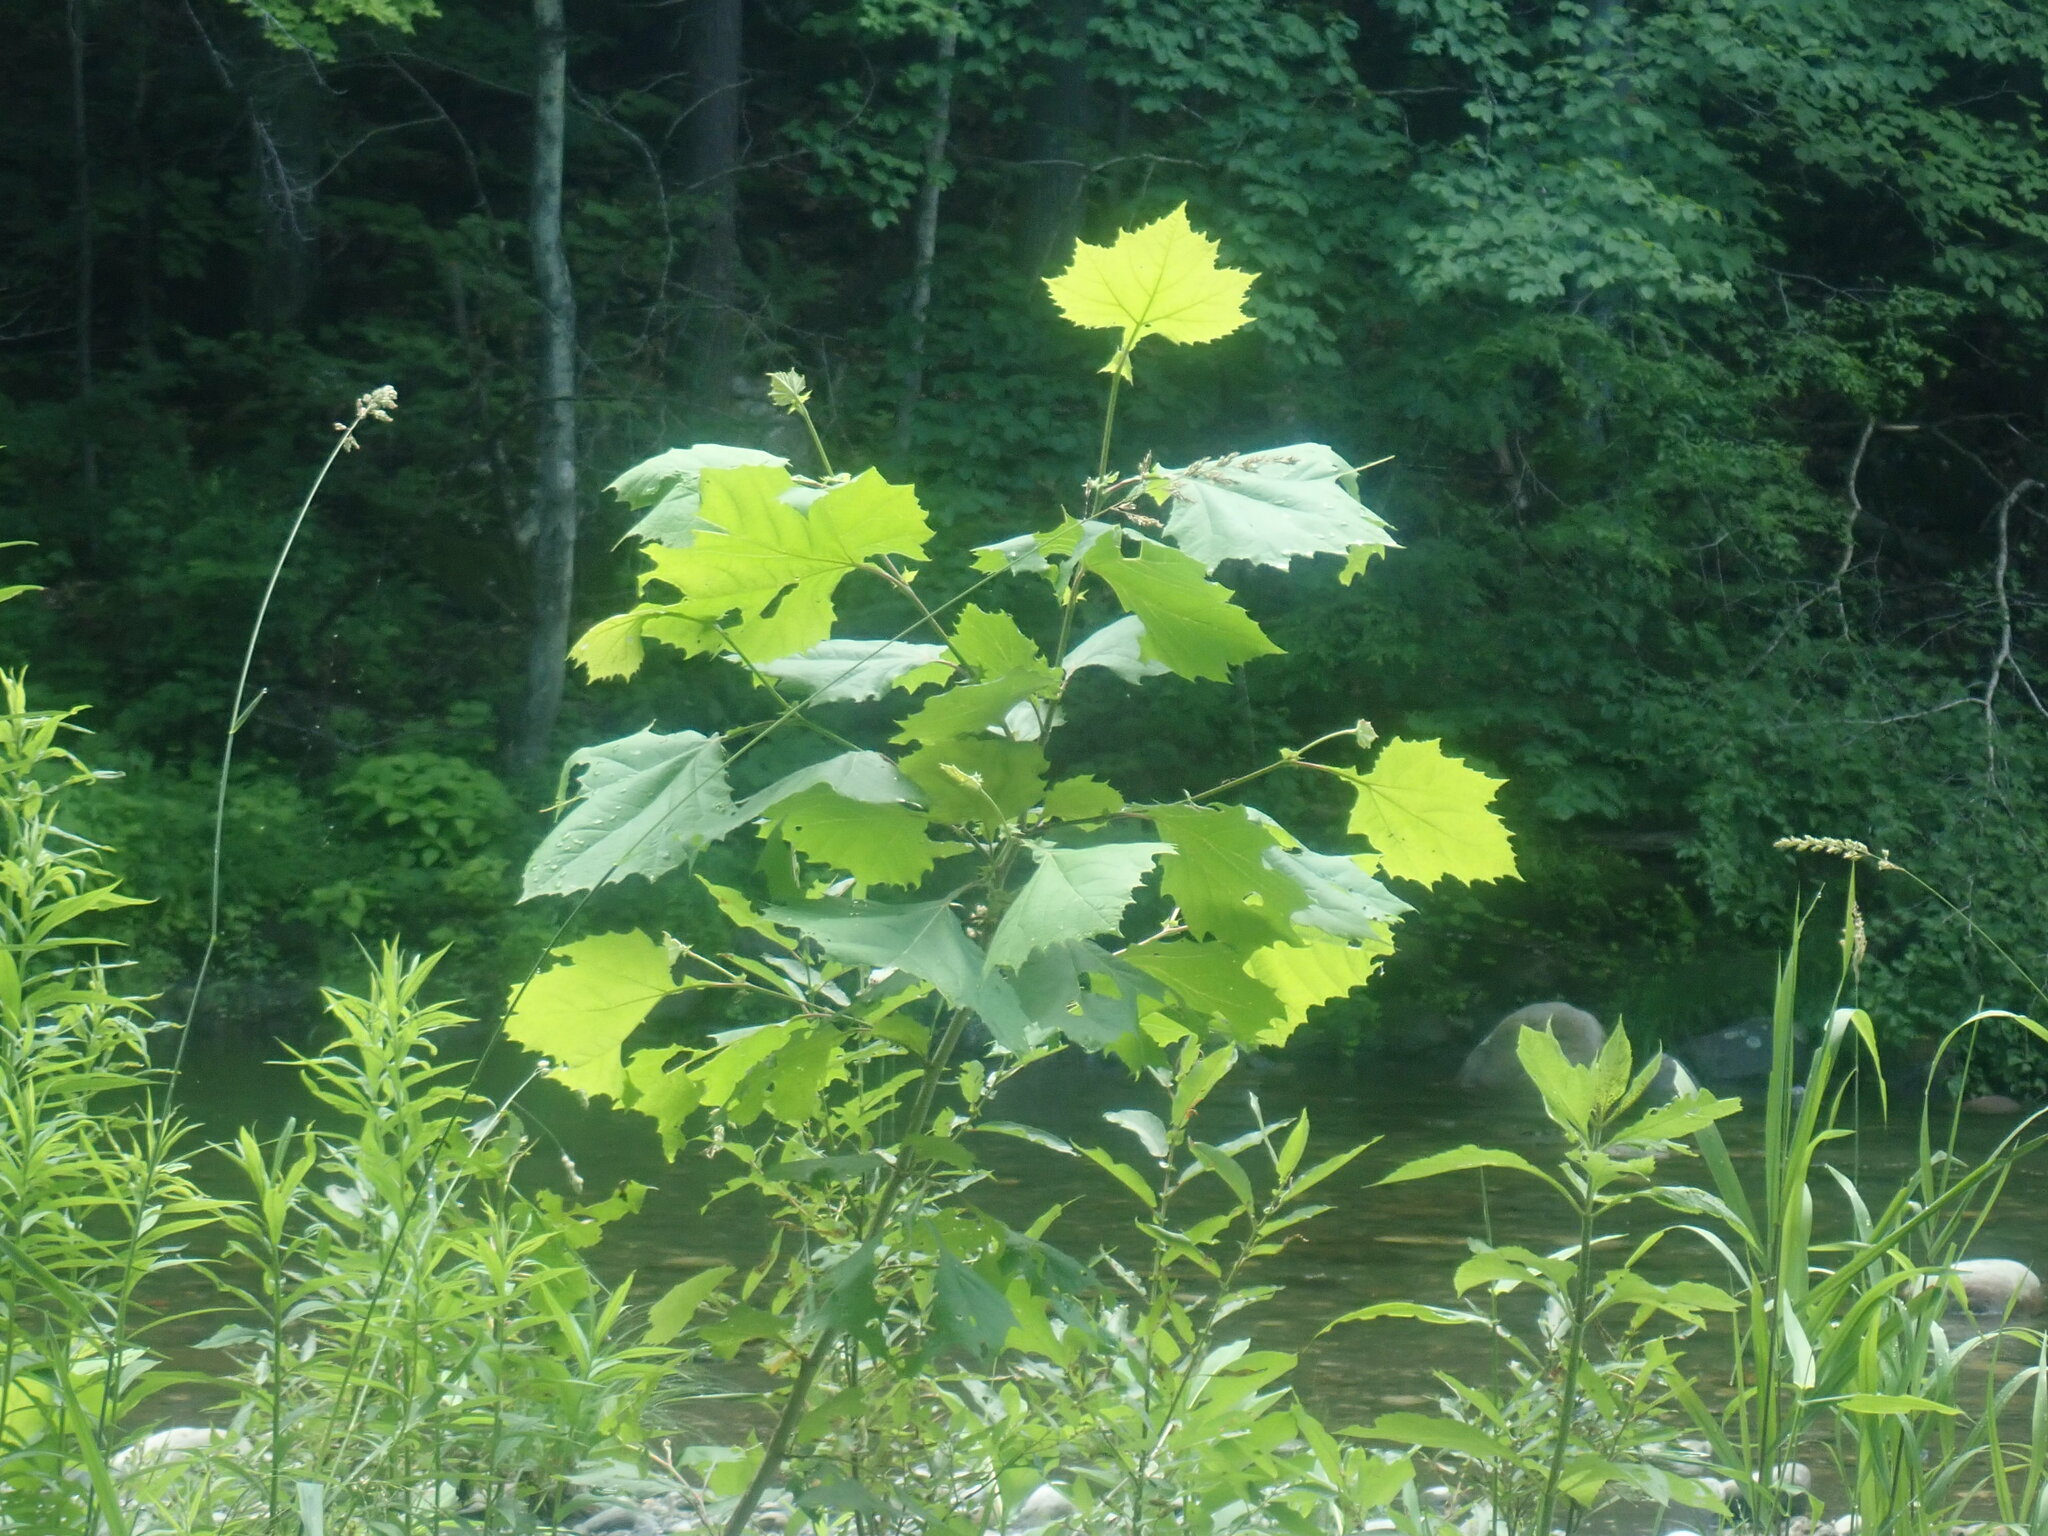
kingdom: Plantae
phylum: Tracheophyta
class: Magnoliopsida
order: Proteales
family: Platanaceae
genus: Platanus
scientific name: Platanus occidentalis
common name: American sycamore
